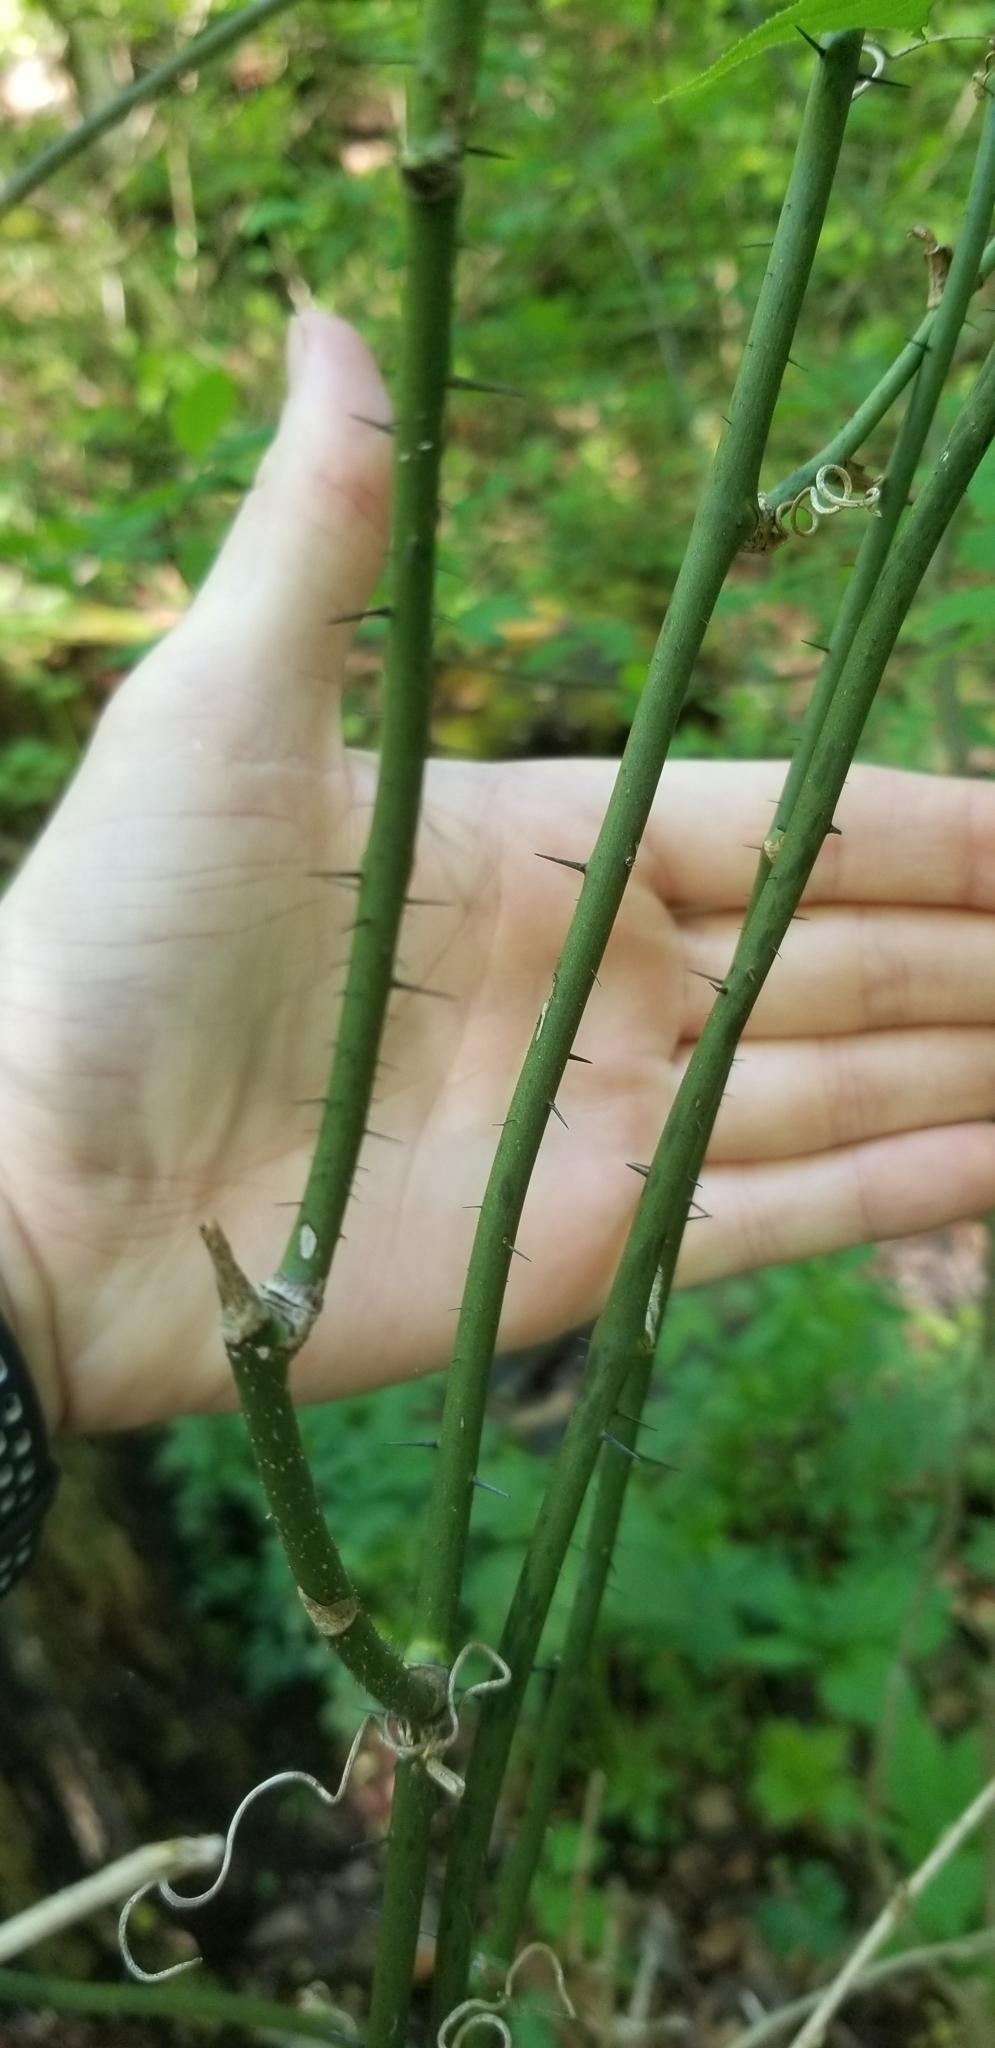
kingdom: Plantae
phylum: Tracheophyta
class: Liliopsida
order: Liliales
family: Smilacaceae
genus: Smilax
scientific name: Smilax tamnoides
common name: Hellfetter
